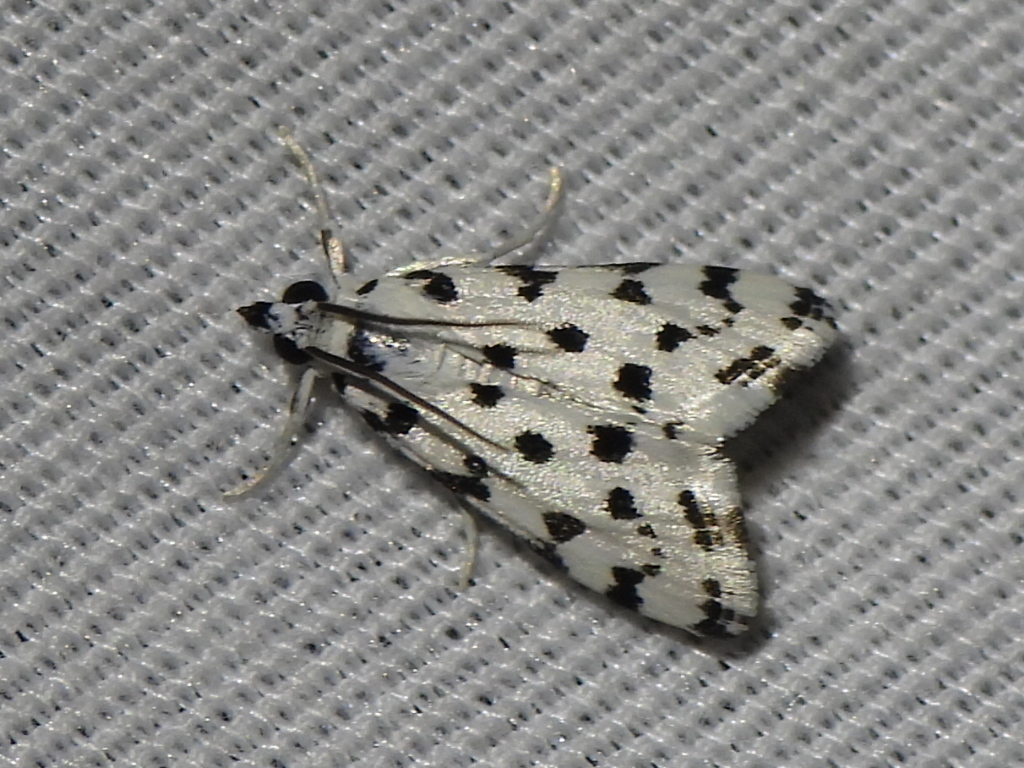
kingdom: Animalia
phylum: Arthropoda
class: Insecta
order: Lepidoptera
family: Crambidae
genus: Eustixia
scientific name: Eustixia pupula
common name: American cabbage pearl
